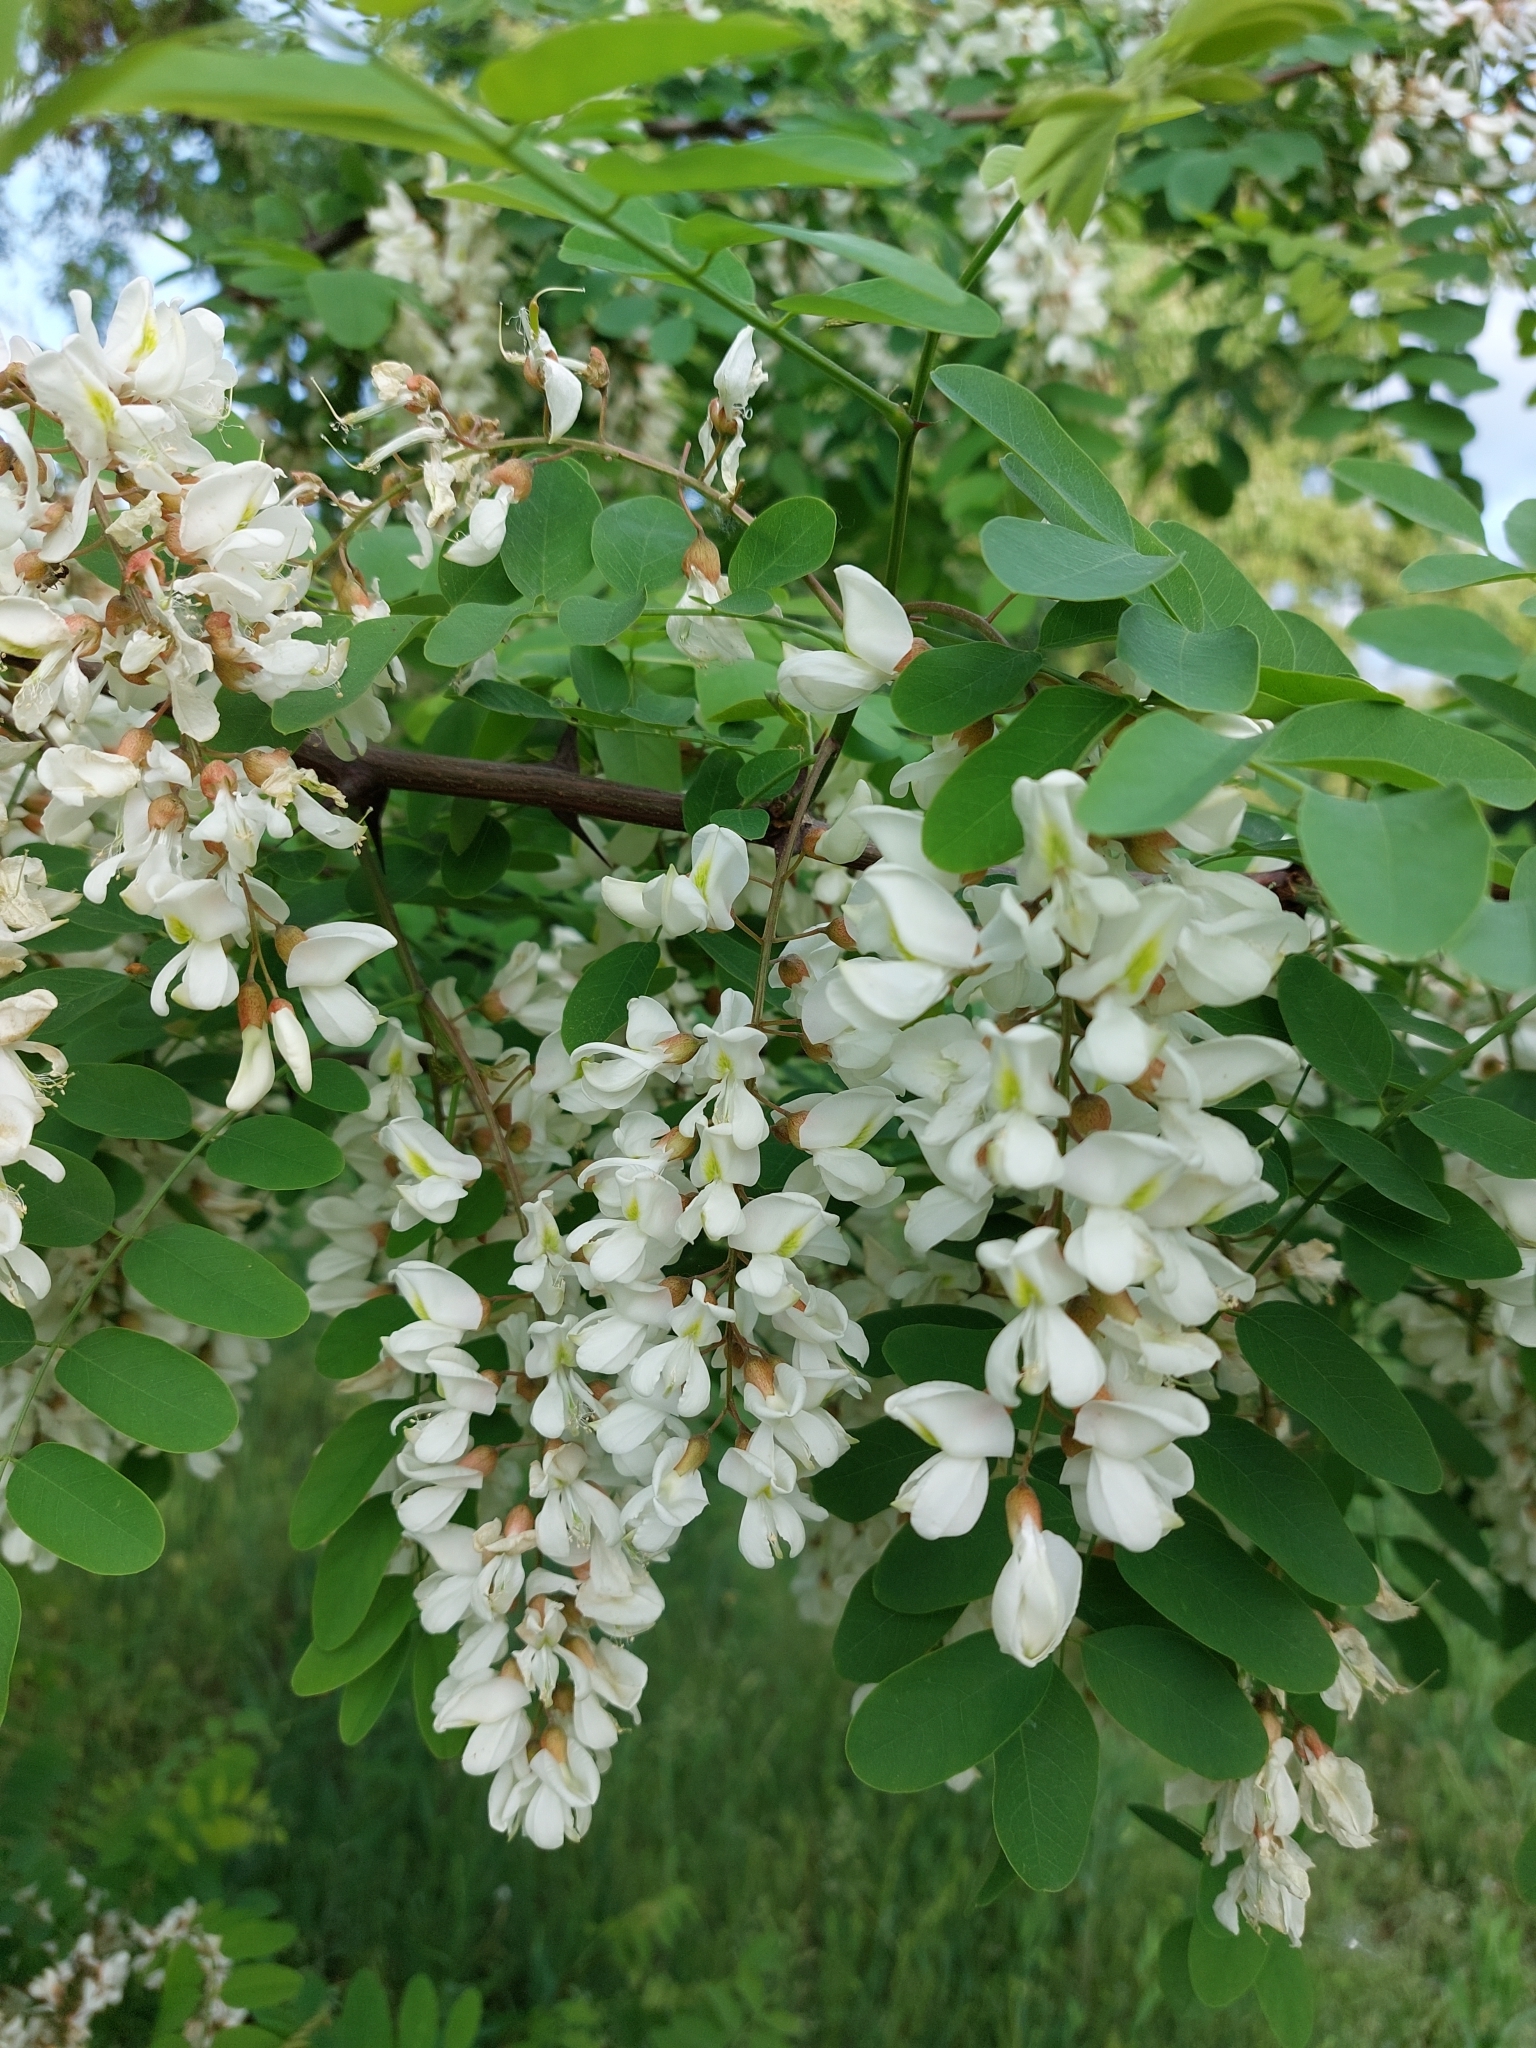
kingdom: Plantae
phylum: Tracheophyta
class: Magnoliopsida
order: Fabales
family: Fabaceae
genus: Robinia
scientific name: Robinia pseudoacacia
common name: Black locust
